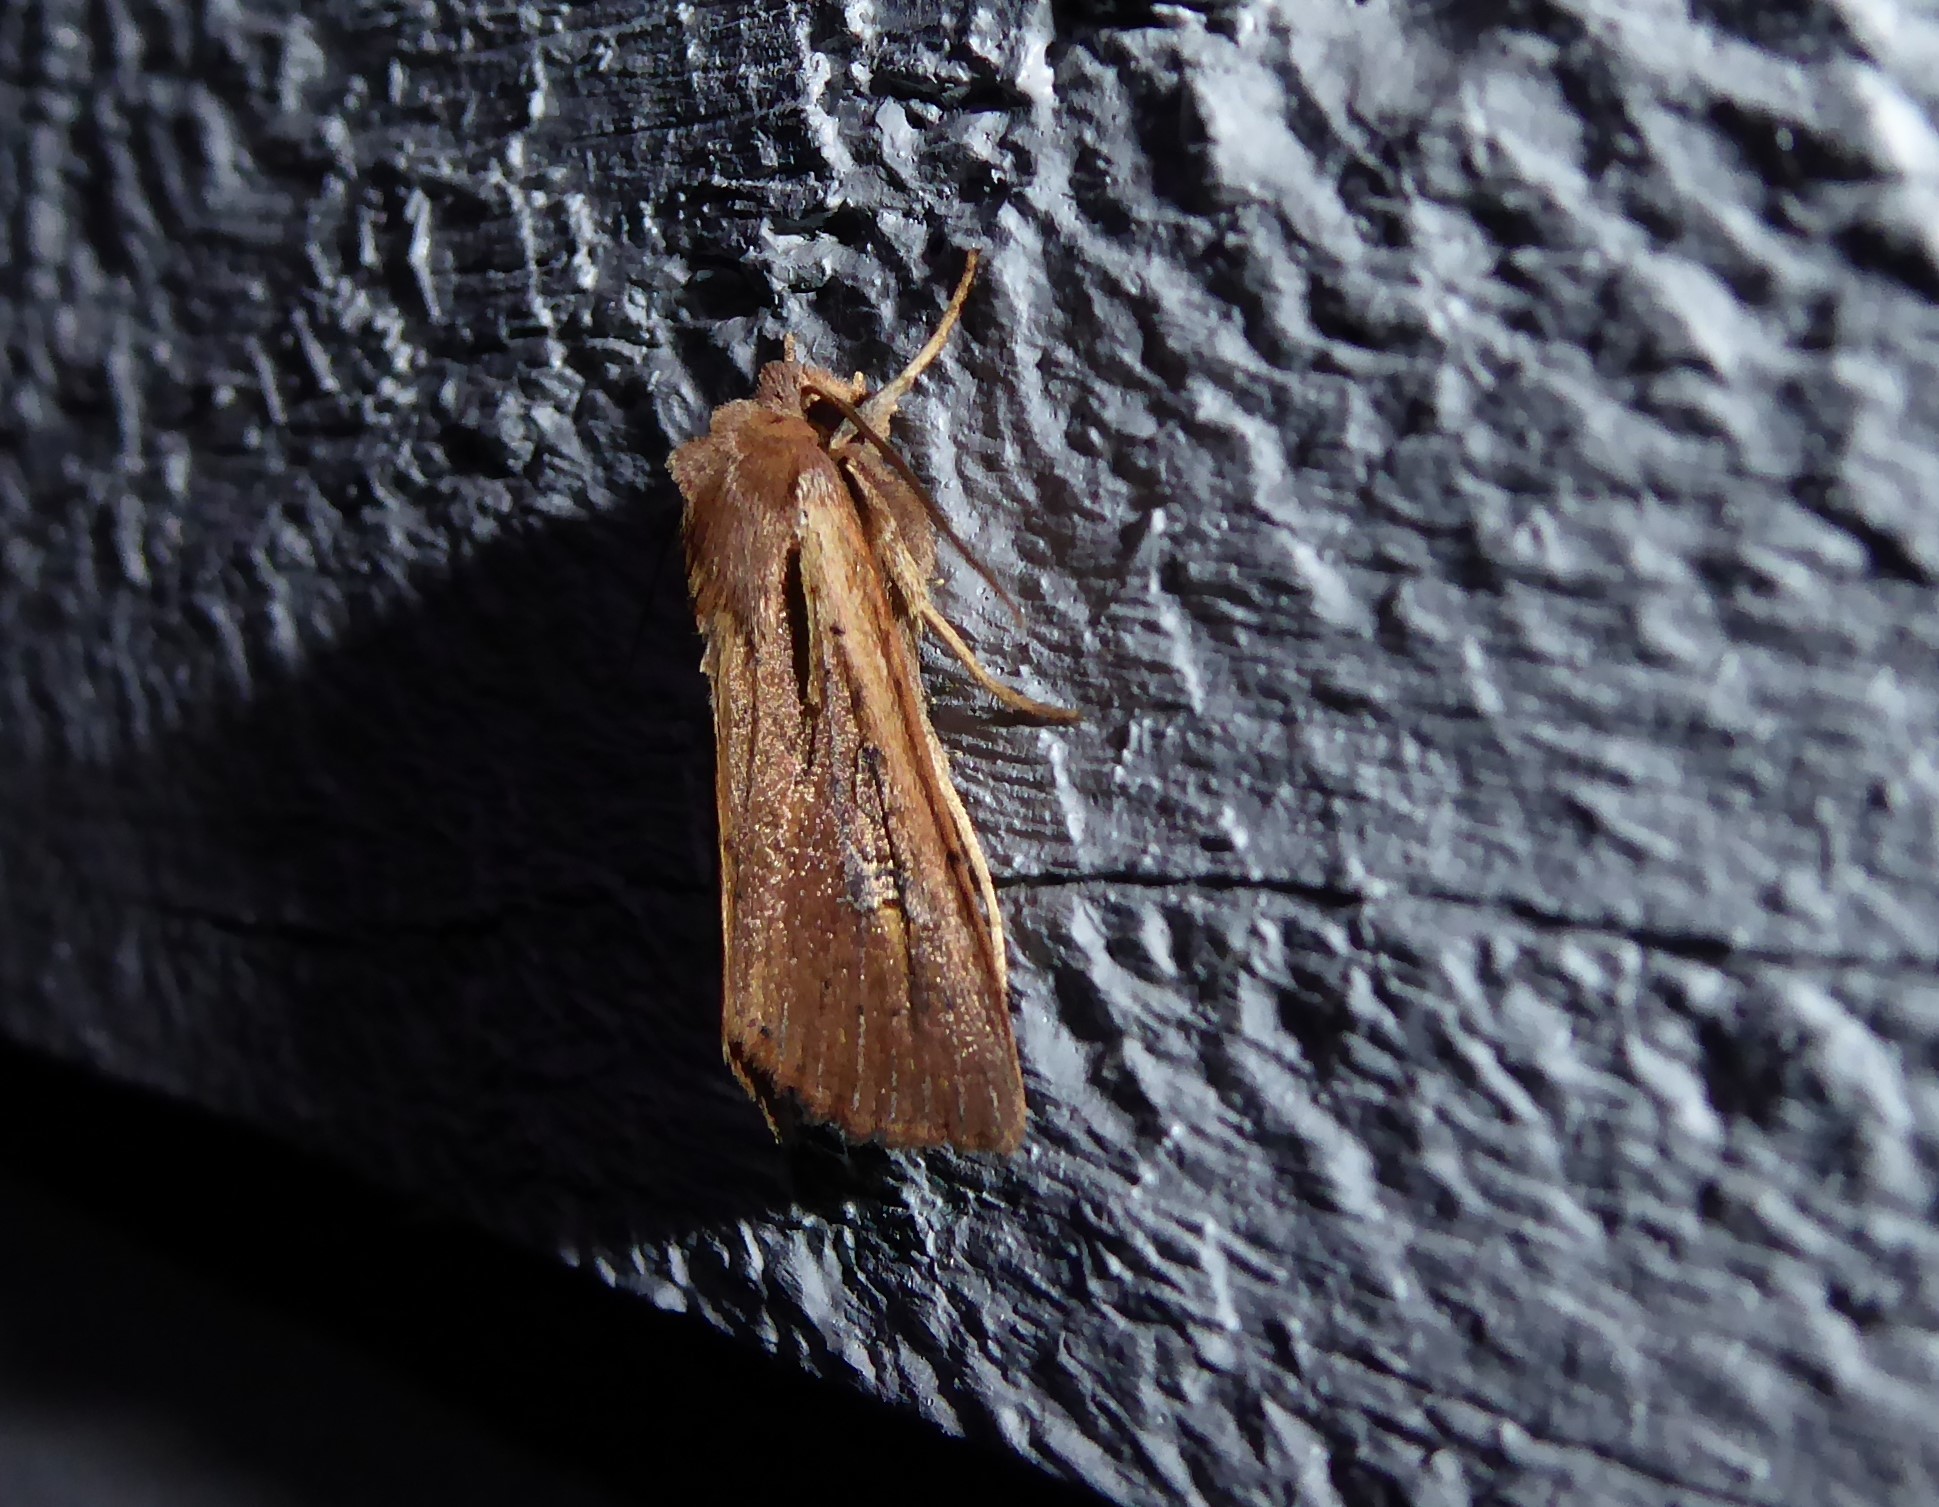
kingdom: Animalia
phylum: Arthropoda
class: Insecta
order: Lepidoptera
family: Noctuidae
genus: Ichneutica
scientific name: Ichneutica atristriga
